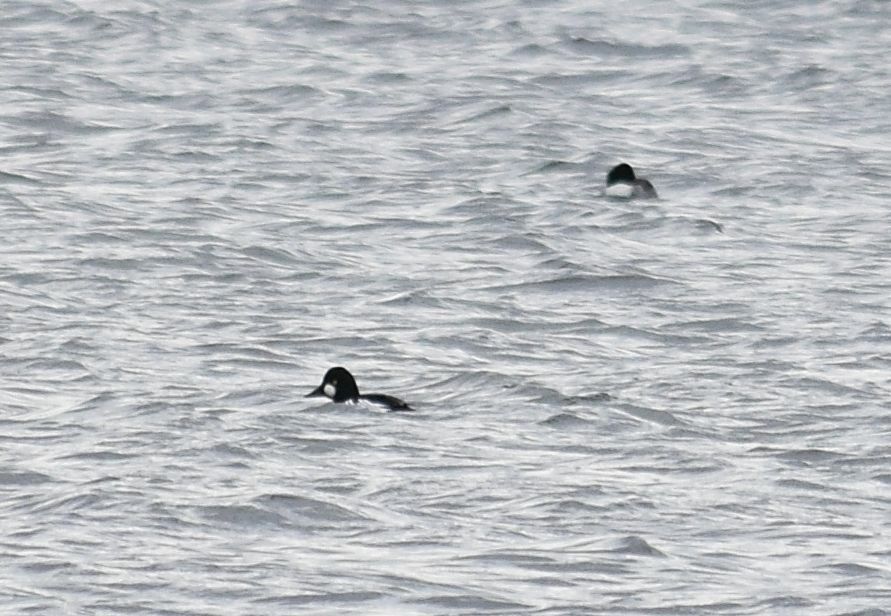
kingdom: Animalia
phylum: Chordata
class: Aves
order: Anseriformes
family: Anatidae
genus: Bucephala
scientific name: Bucephala clangula
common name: Common goldeneye
